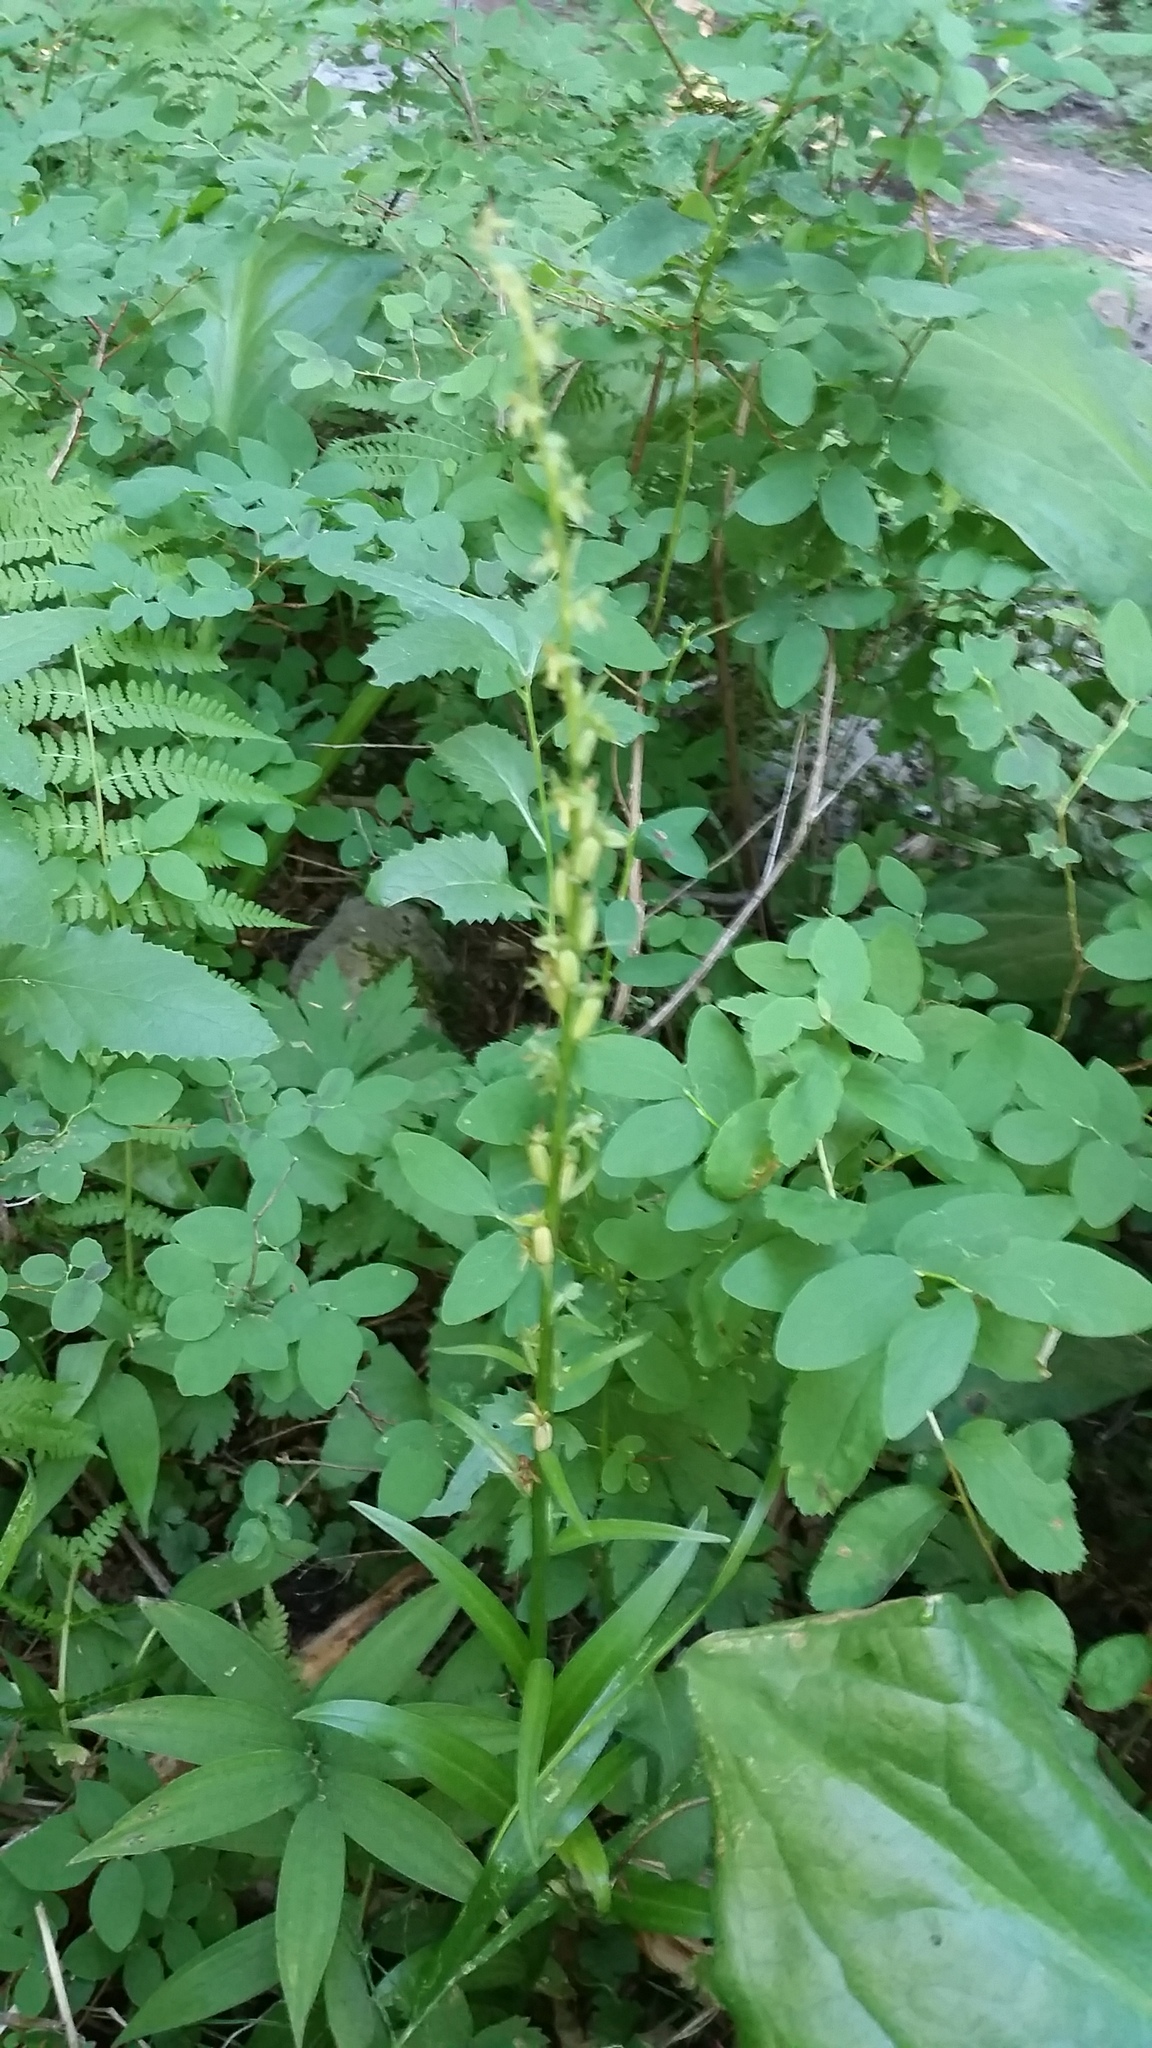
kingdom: Plantae
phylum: Tracheophyta
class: Liliopsida
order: Asparagales
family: Orchidaceae
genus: Platanthera
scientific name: Platanthera stricta
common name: Slender bog orchid
